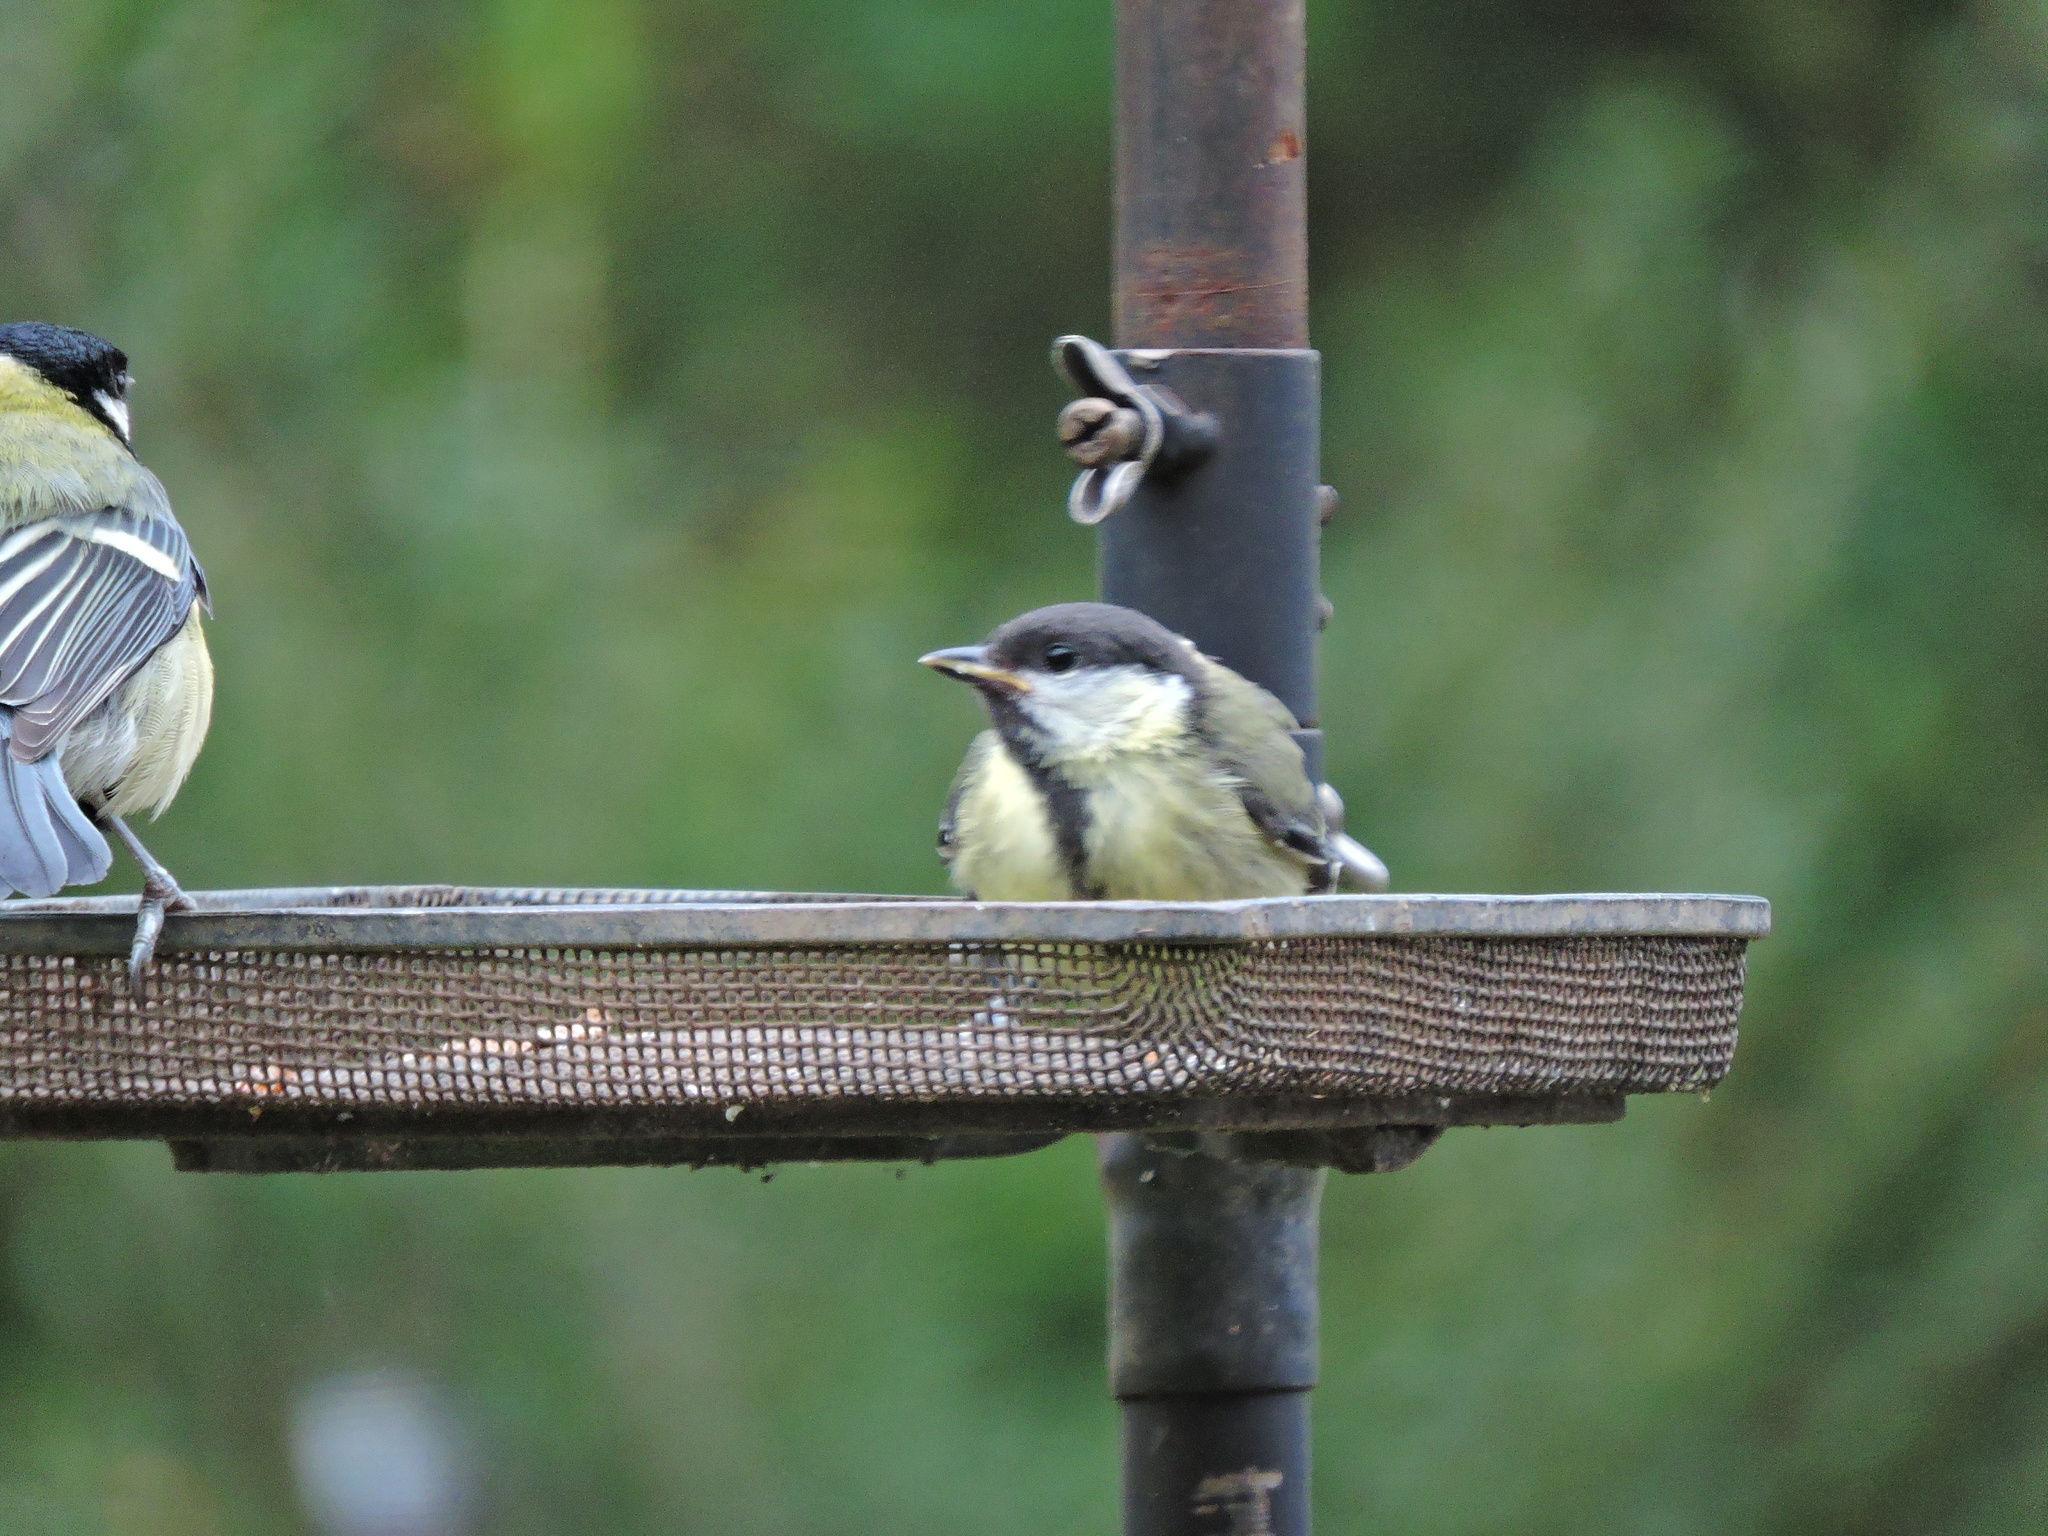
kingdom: Animalia
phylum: Chordata
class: Aves
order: Passeriformes
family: Paridae
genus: Parus
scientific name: Parus major
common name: Great tit
